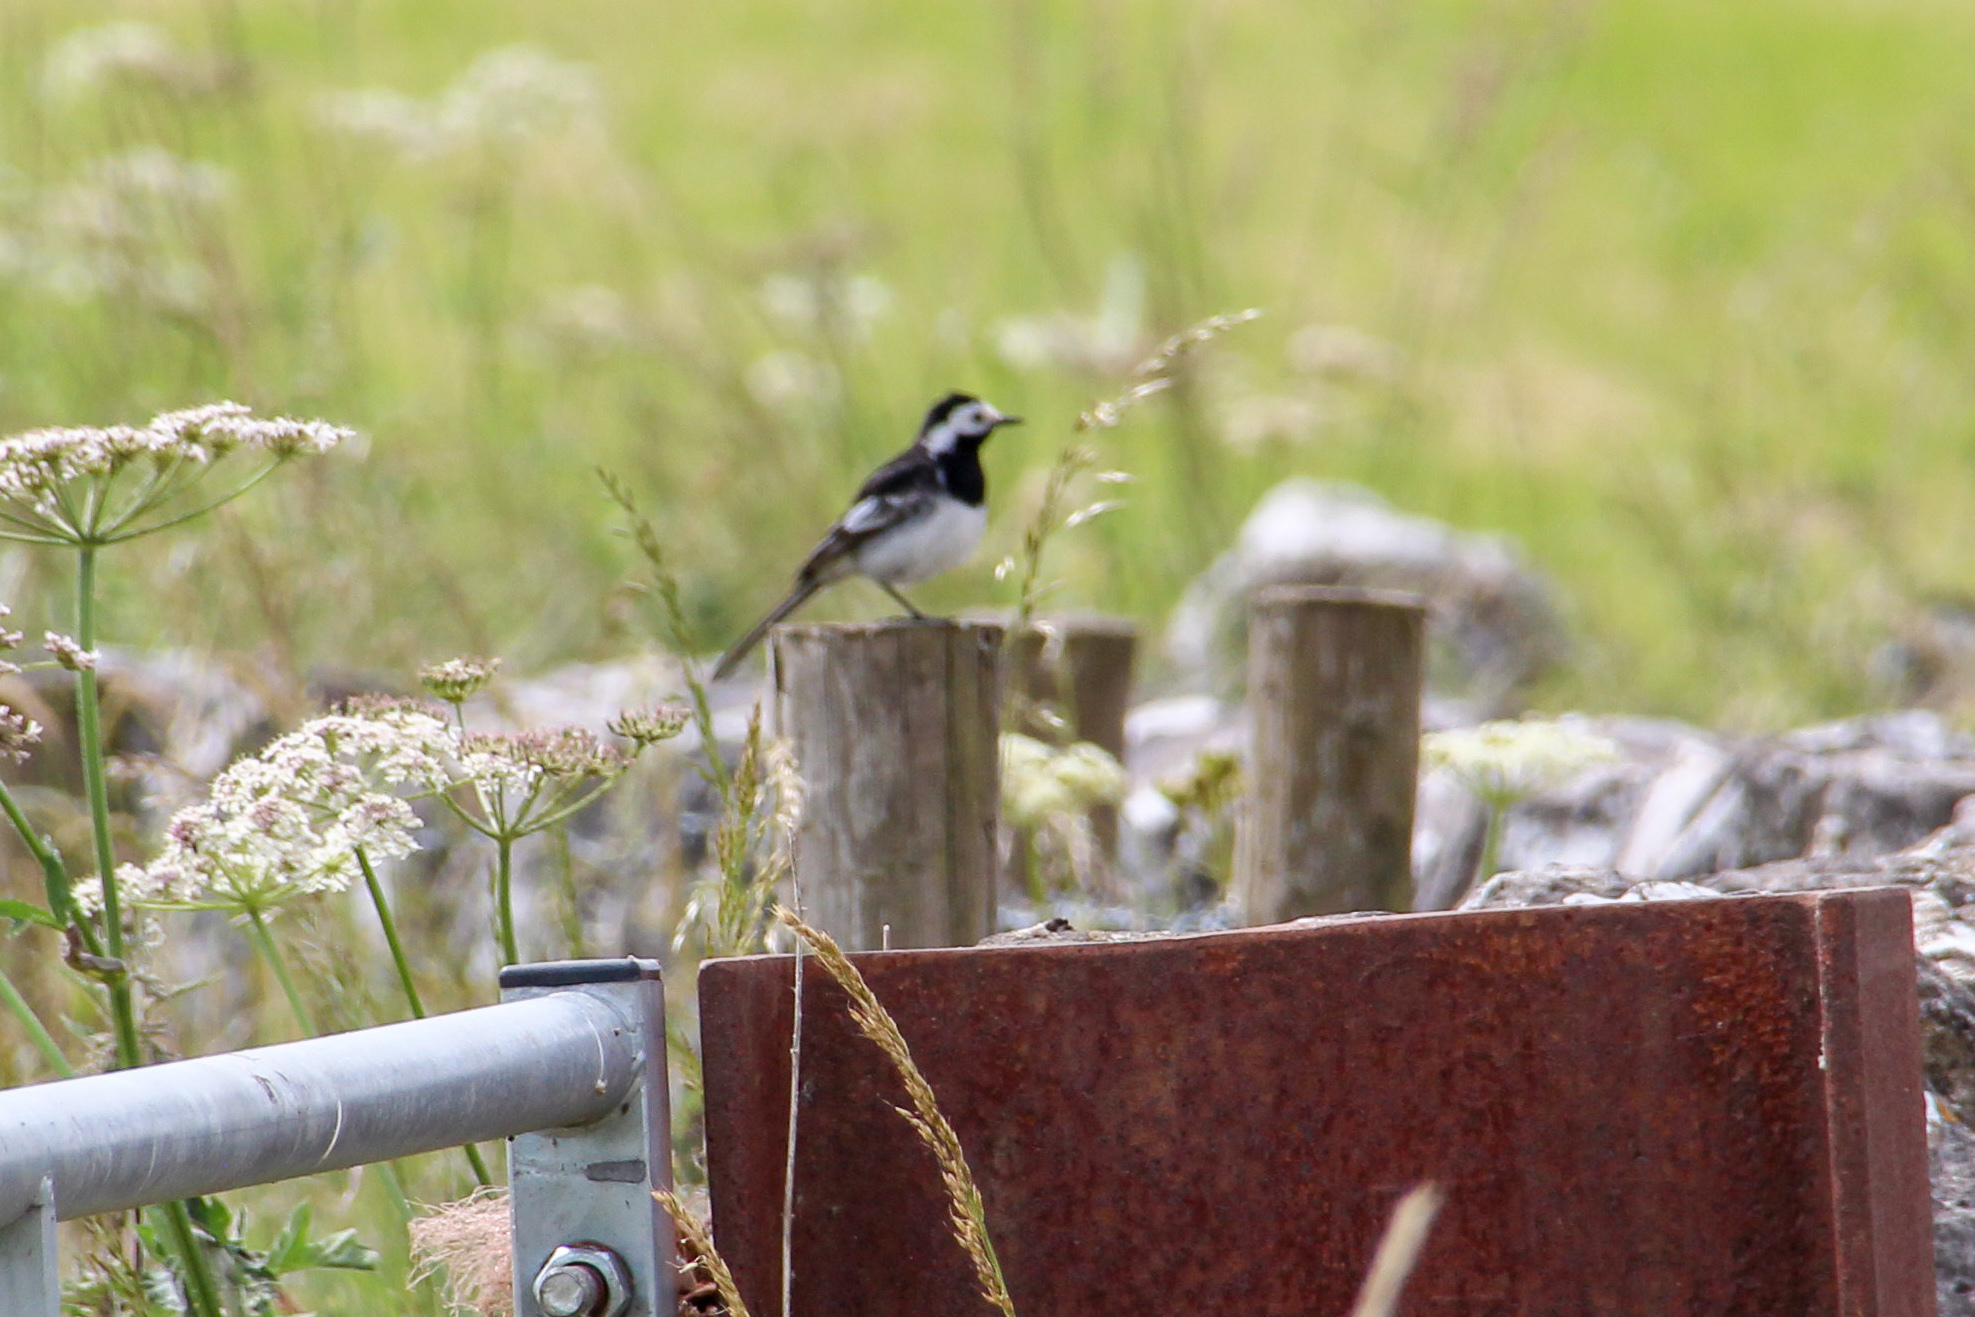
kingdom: Animalia
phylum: Chordata
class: Aves
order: Passeriformes
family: Motacillidae
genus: Motacilla
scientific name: Motacilla alba
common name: White wagtail
